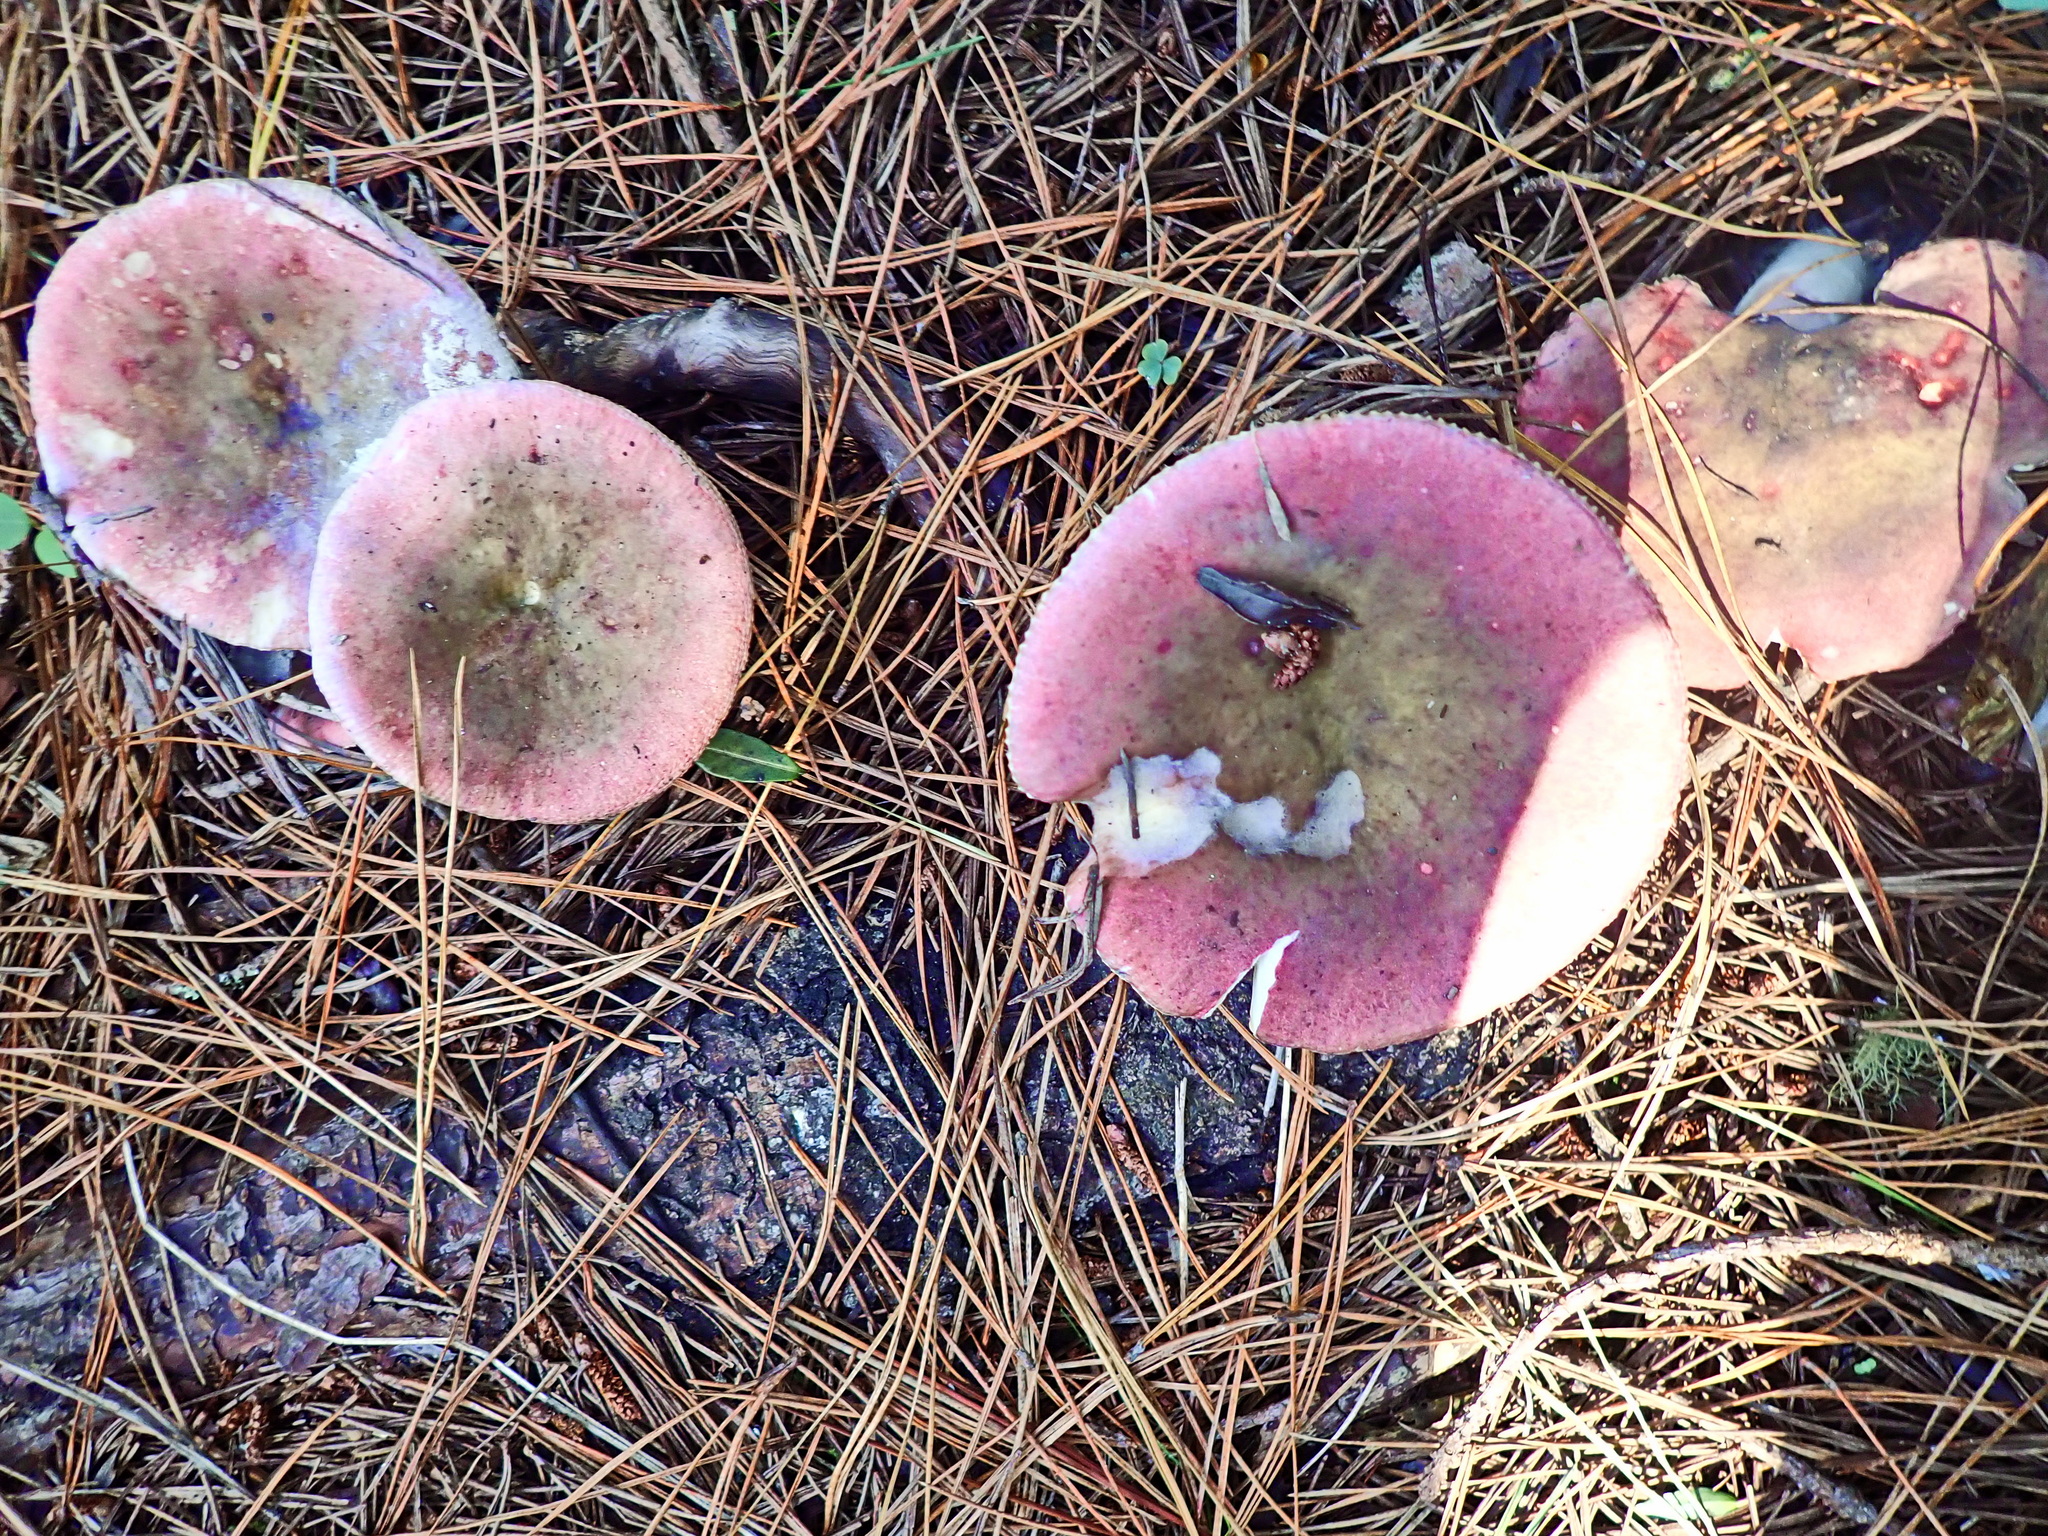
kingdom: Fungi
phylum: Basidiomycota
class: Agaricomycetes
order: Russulales
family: Russulaceae
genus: Russula
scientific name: Russula sardonia
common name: Primrose brittlegill
